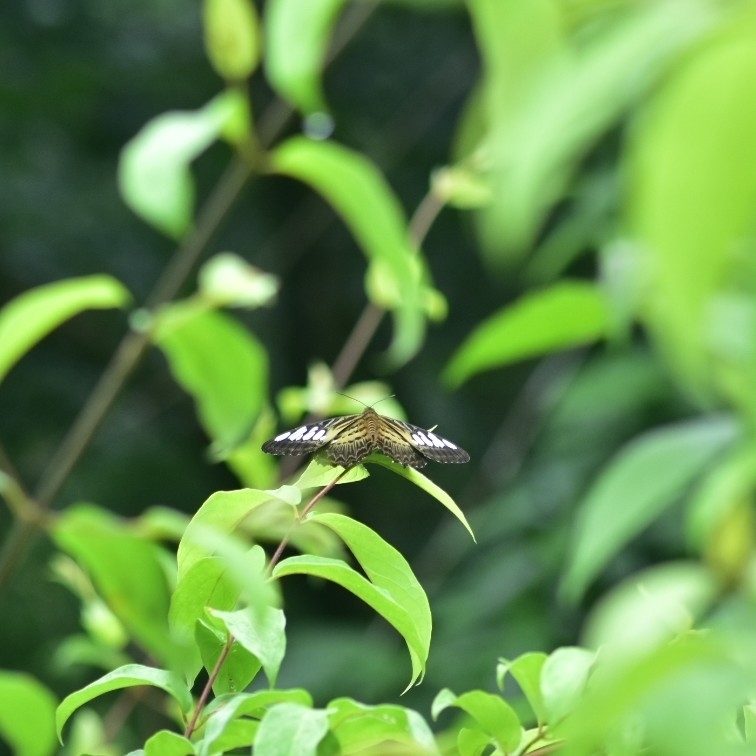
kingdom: Animalia
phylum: Arthropoda
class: Insecta
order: Lepidoptera
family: Nymphalidae
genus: Kallima
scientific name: Kallima sylvia
